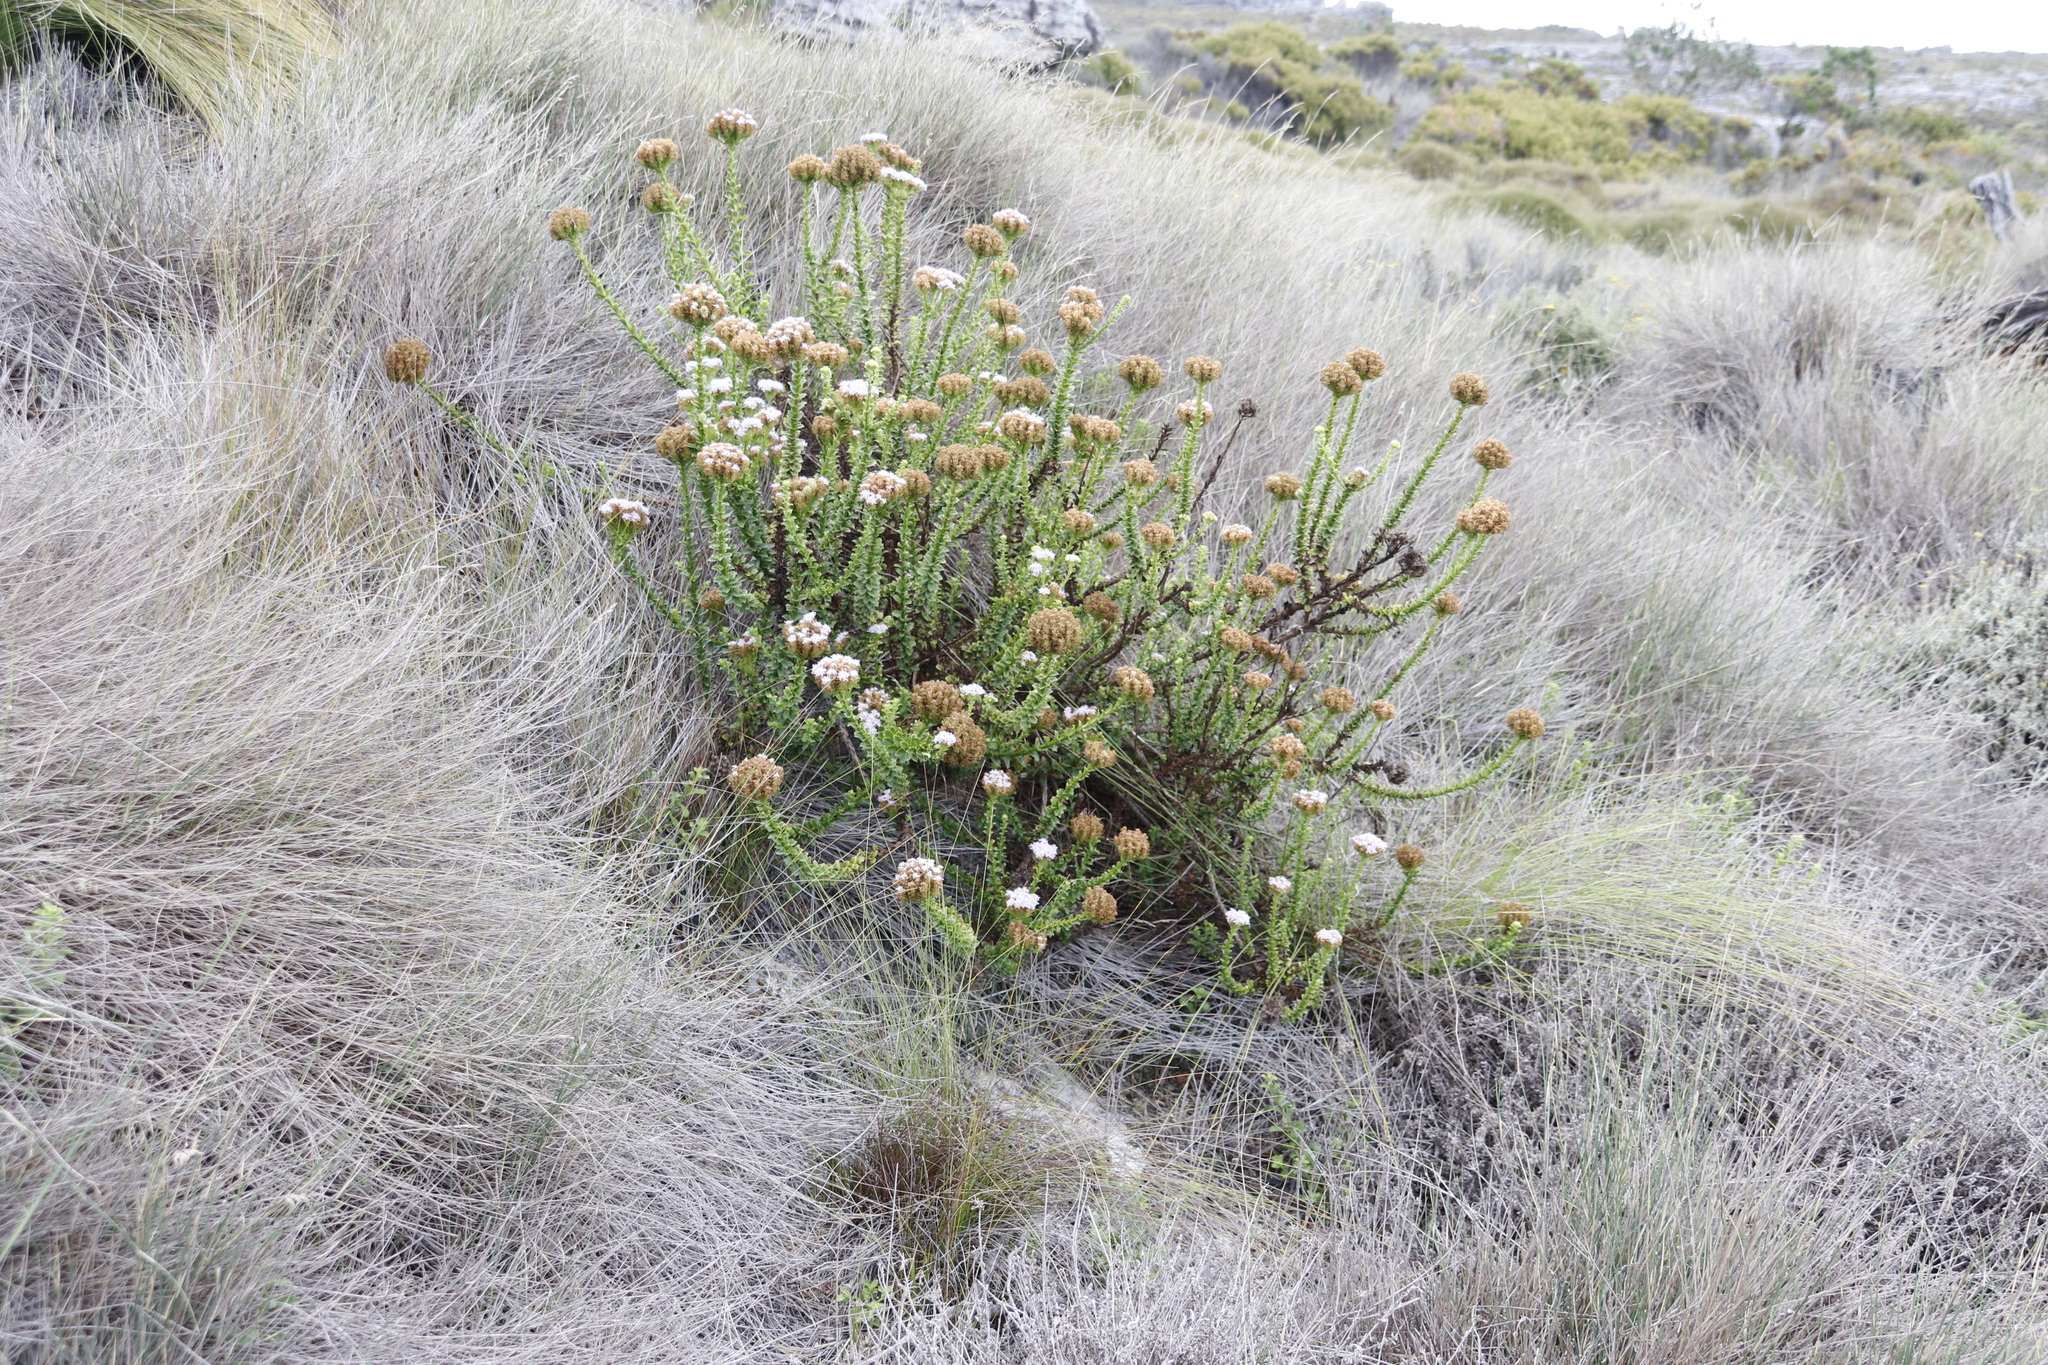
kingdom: Plantae
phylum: Tracheophyta
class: Magnoliopsida
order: Lamiales
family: Scrophulariaceae
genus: Pseudoselago
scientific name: Pseudoselago serrata
